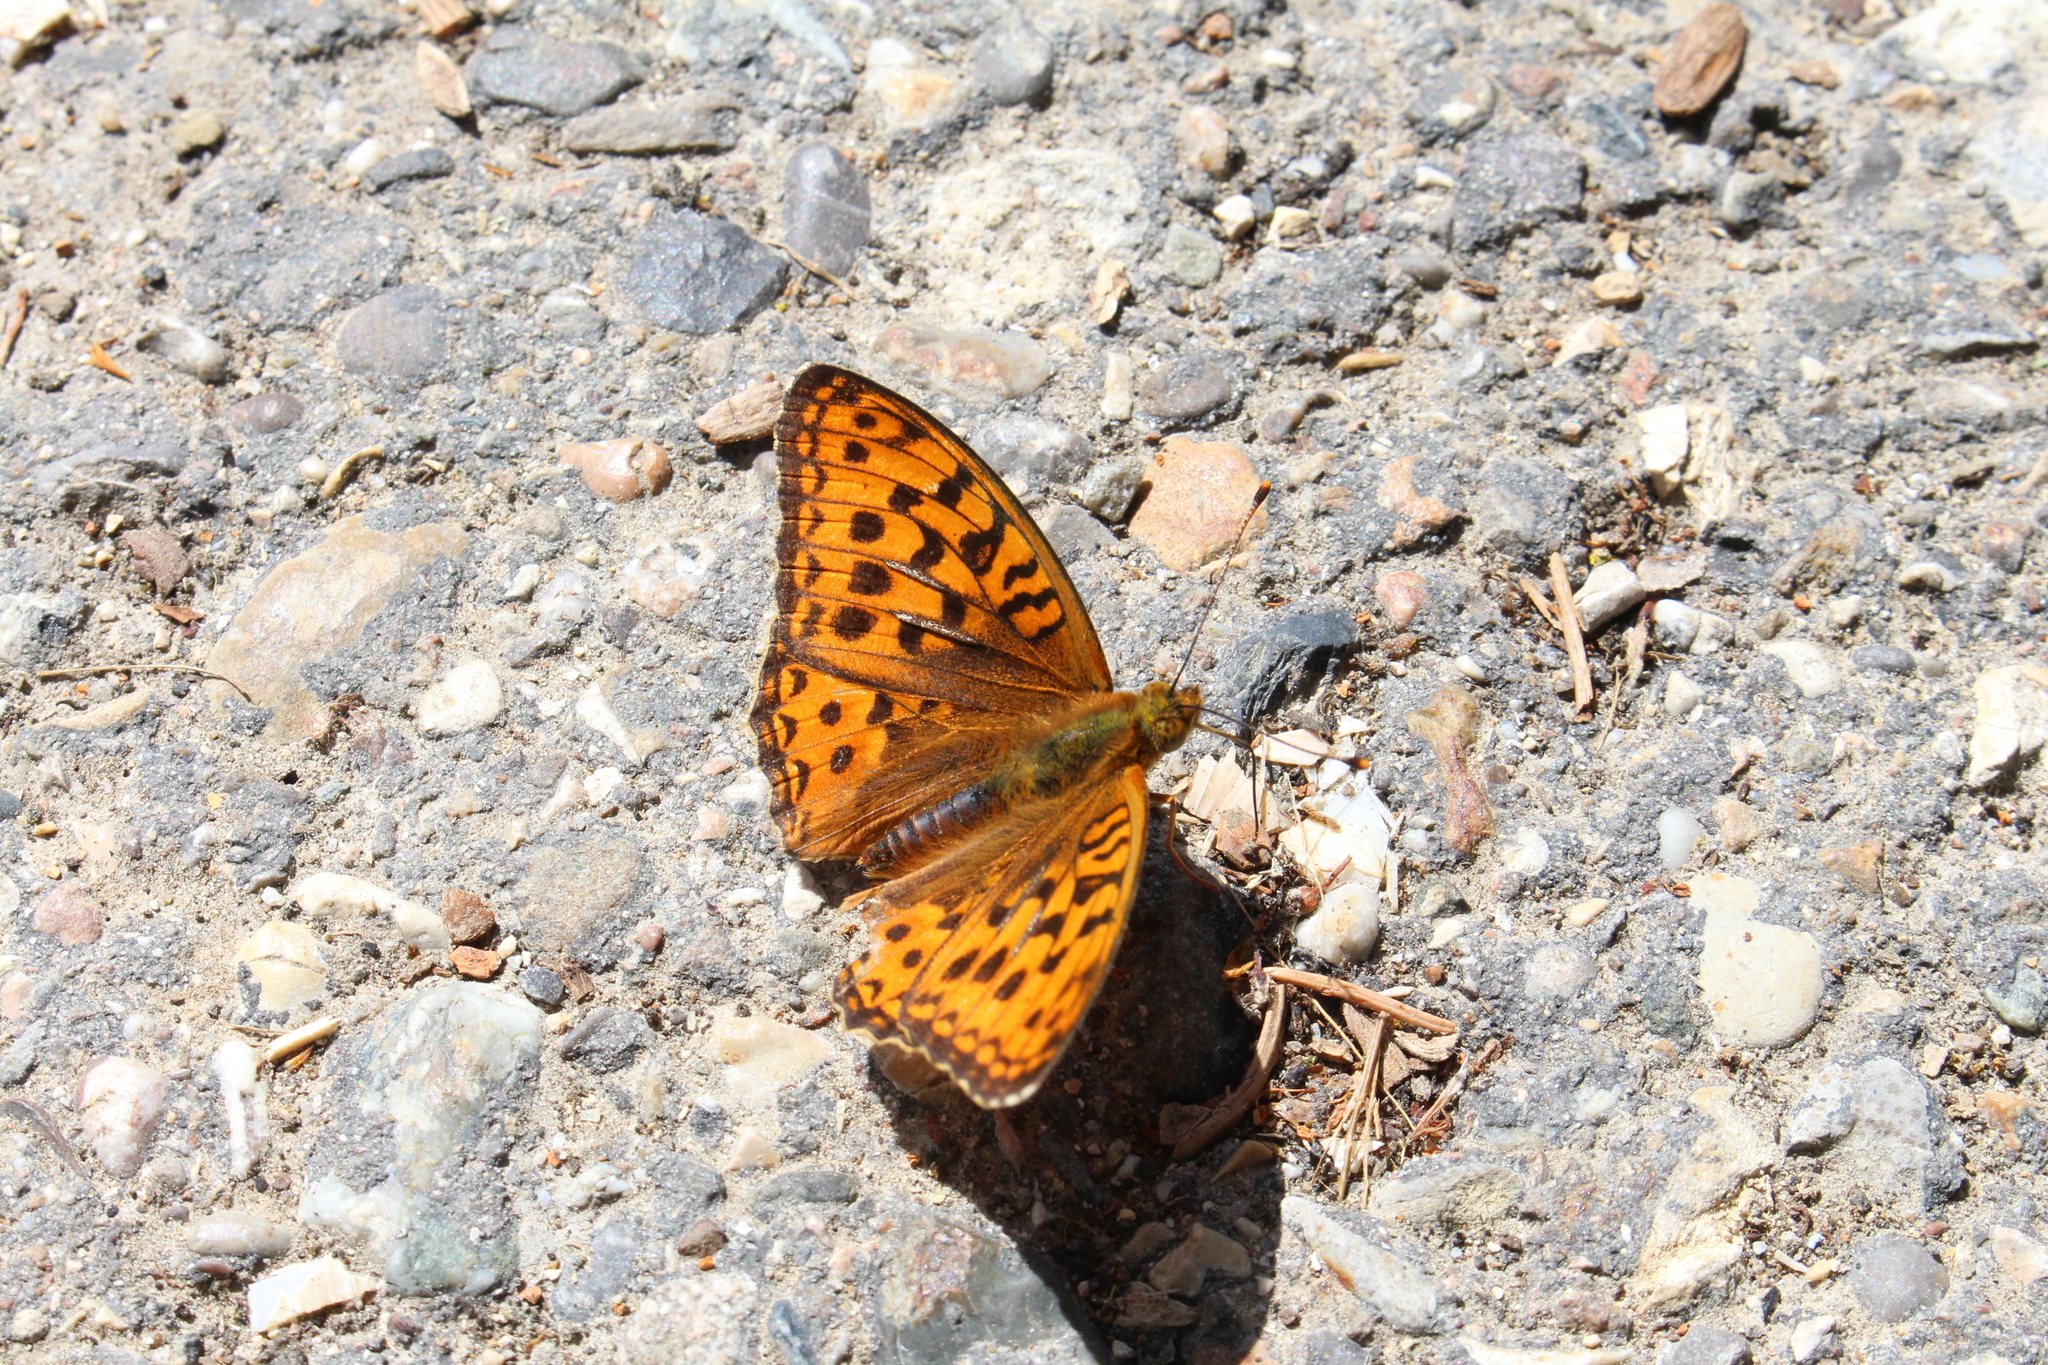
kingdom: Animalia
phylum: Arthropoda
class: Insecta
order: Lepidoptera
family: Nymphalidae
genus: Fabriciana
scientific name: Fabriciana adippe
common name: High brown fritillary
